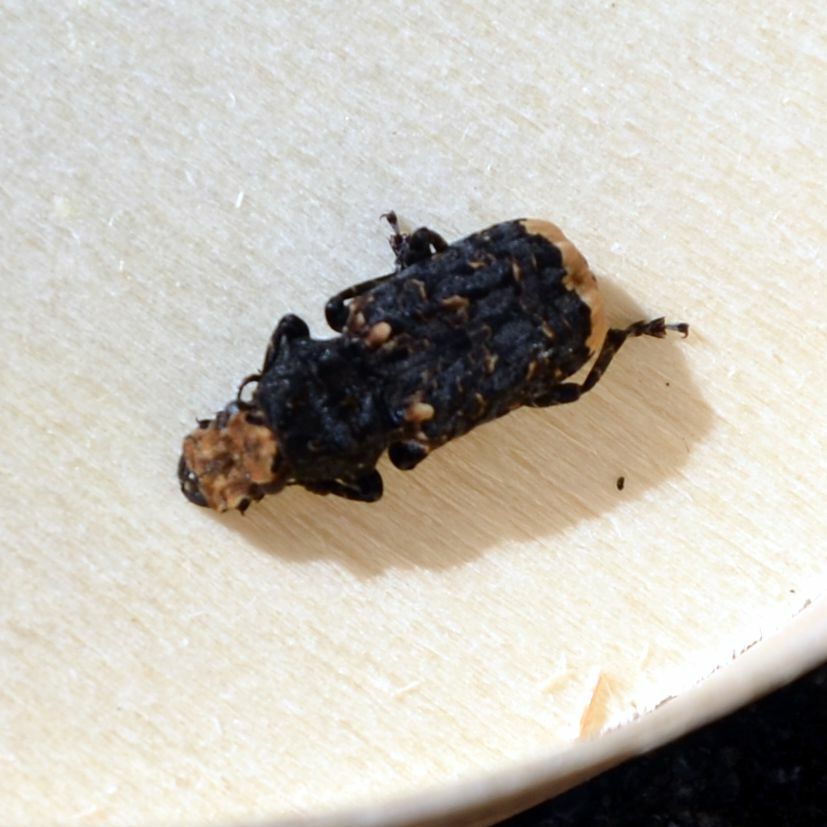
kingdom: Animalia
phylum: Arthropoda
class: Insecta
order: Coleoptera
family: Anthribidae
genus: Platyrhinus
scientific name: Platyrhinus resinosus
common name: Cramp-ball fungus weevil
